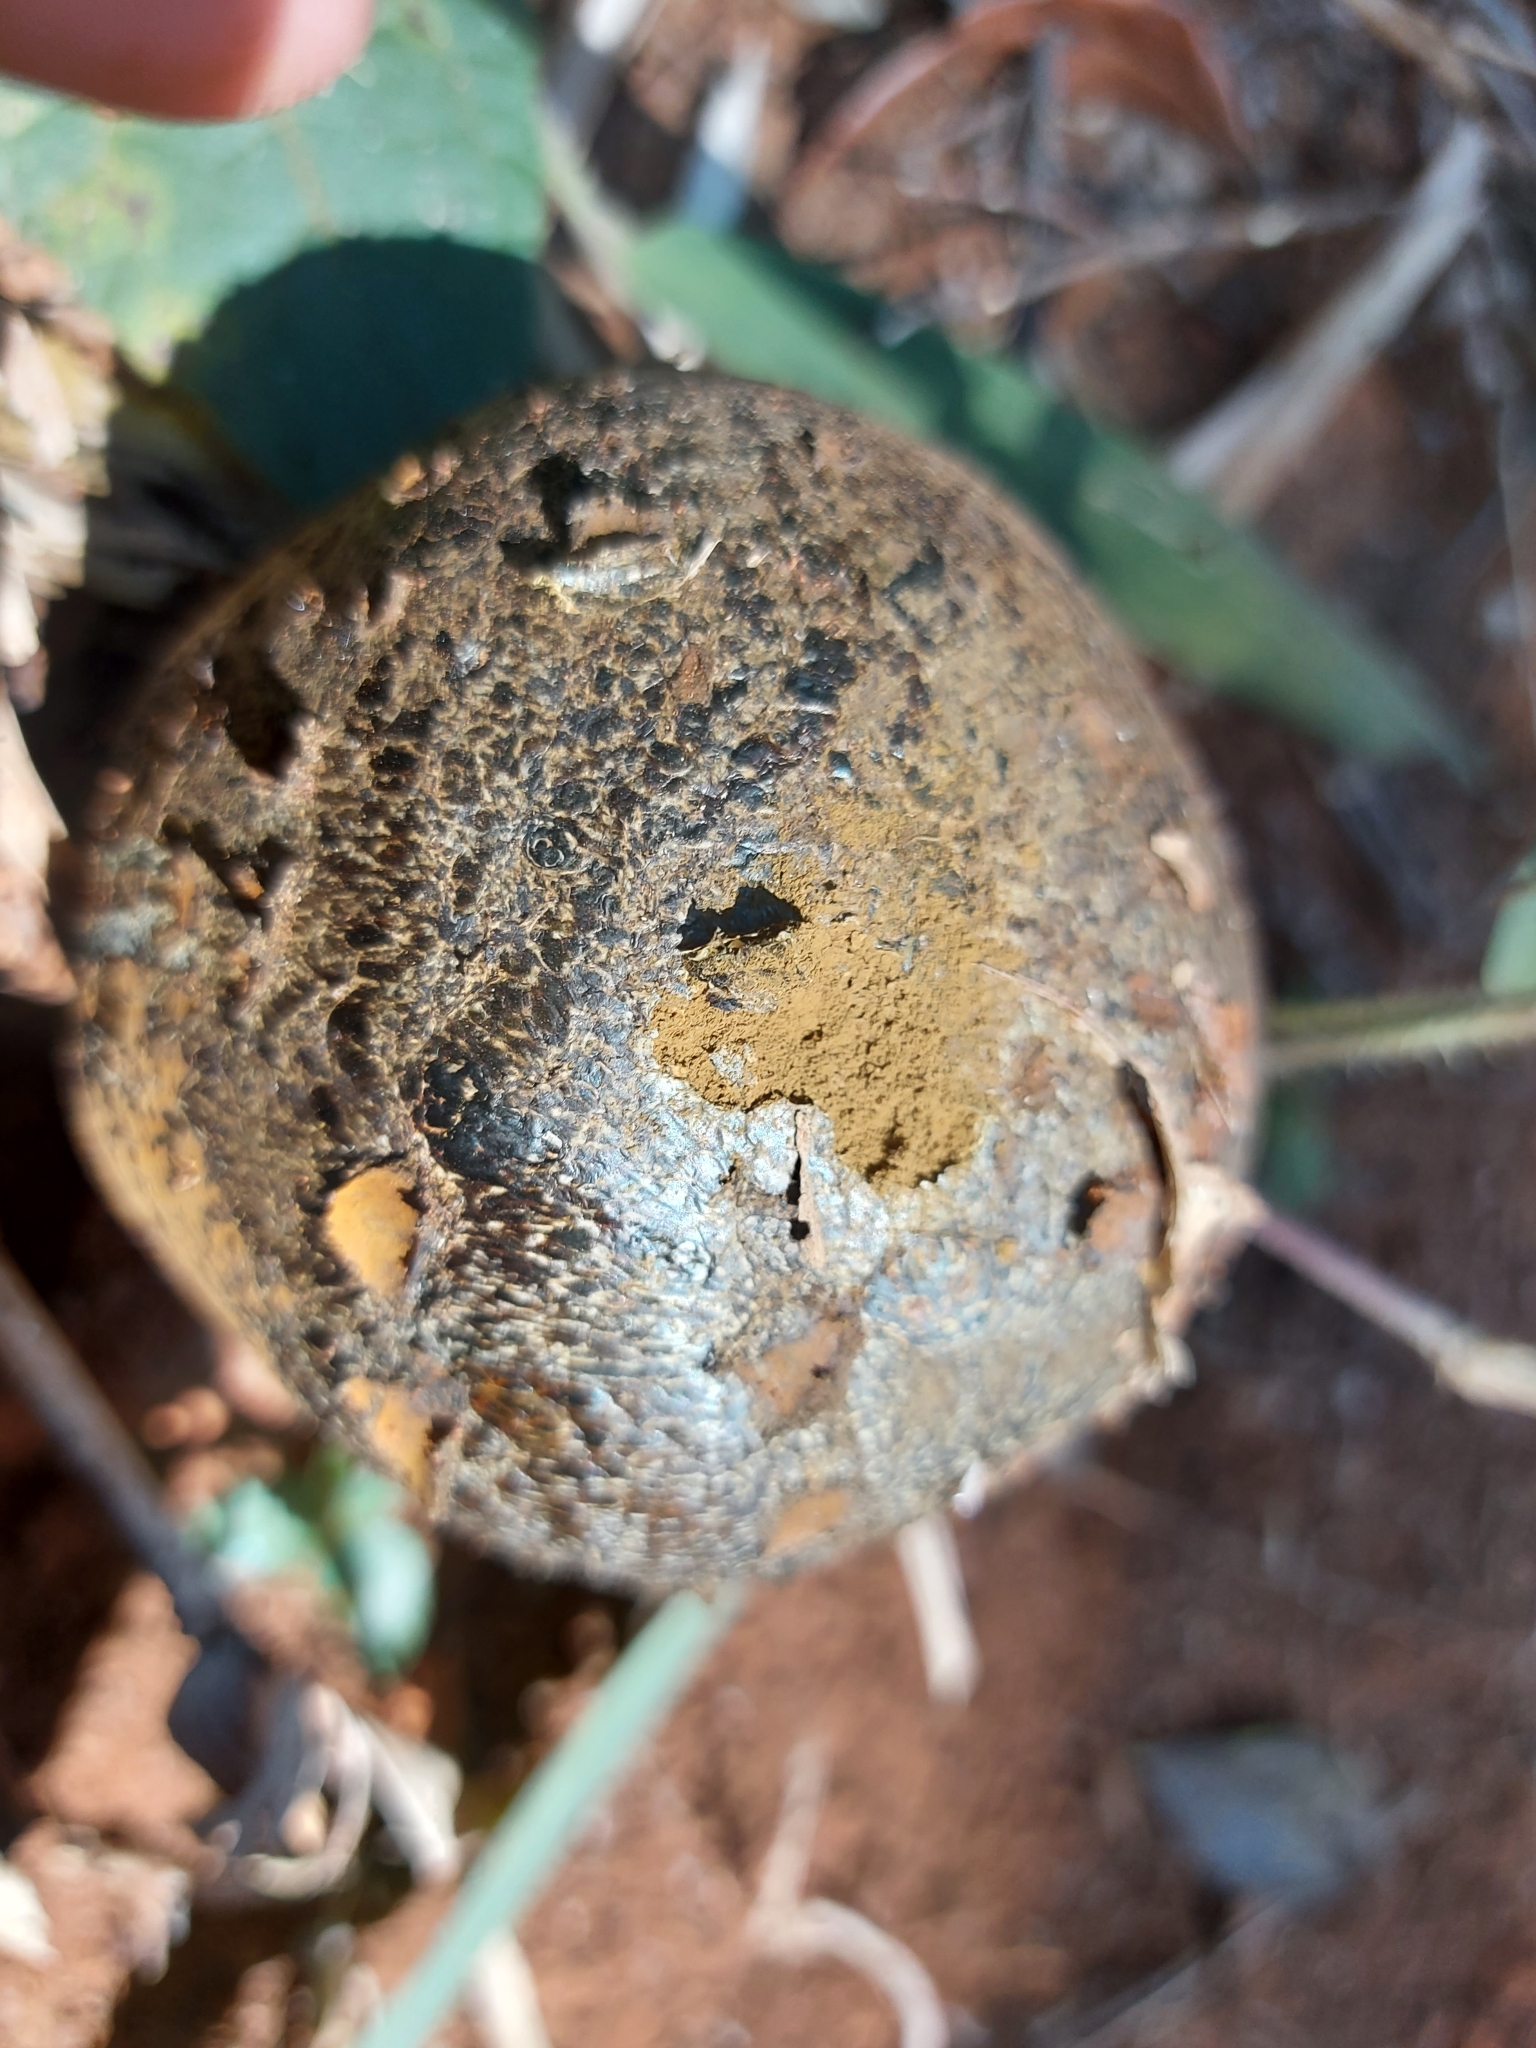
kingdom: Fungi
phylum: Basidiomycota
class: Agaricomycetes
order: Boletales
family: Sclerodermataceae
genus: Pisolithus
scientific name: Pisolithus arhizus
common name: Dyeball
